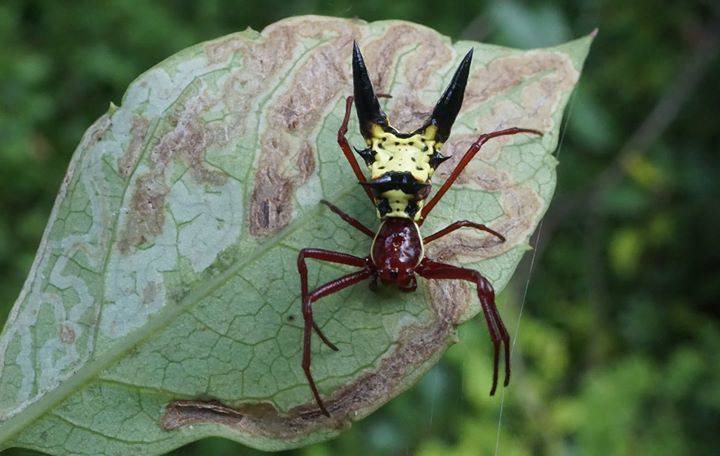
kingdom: Animalia
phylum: Arthropoda
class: Arachnida
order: Araneae
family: Araneidae
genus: Micrathena
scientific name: Micrathena sagittata
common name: Orb weavers
